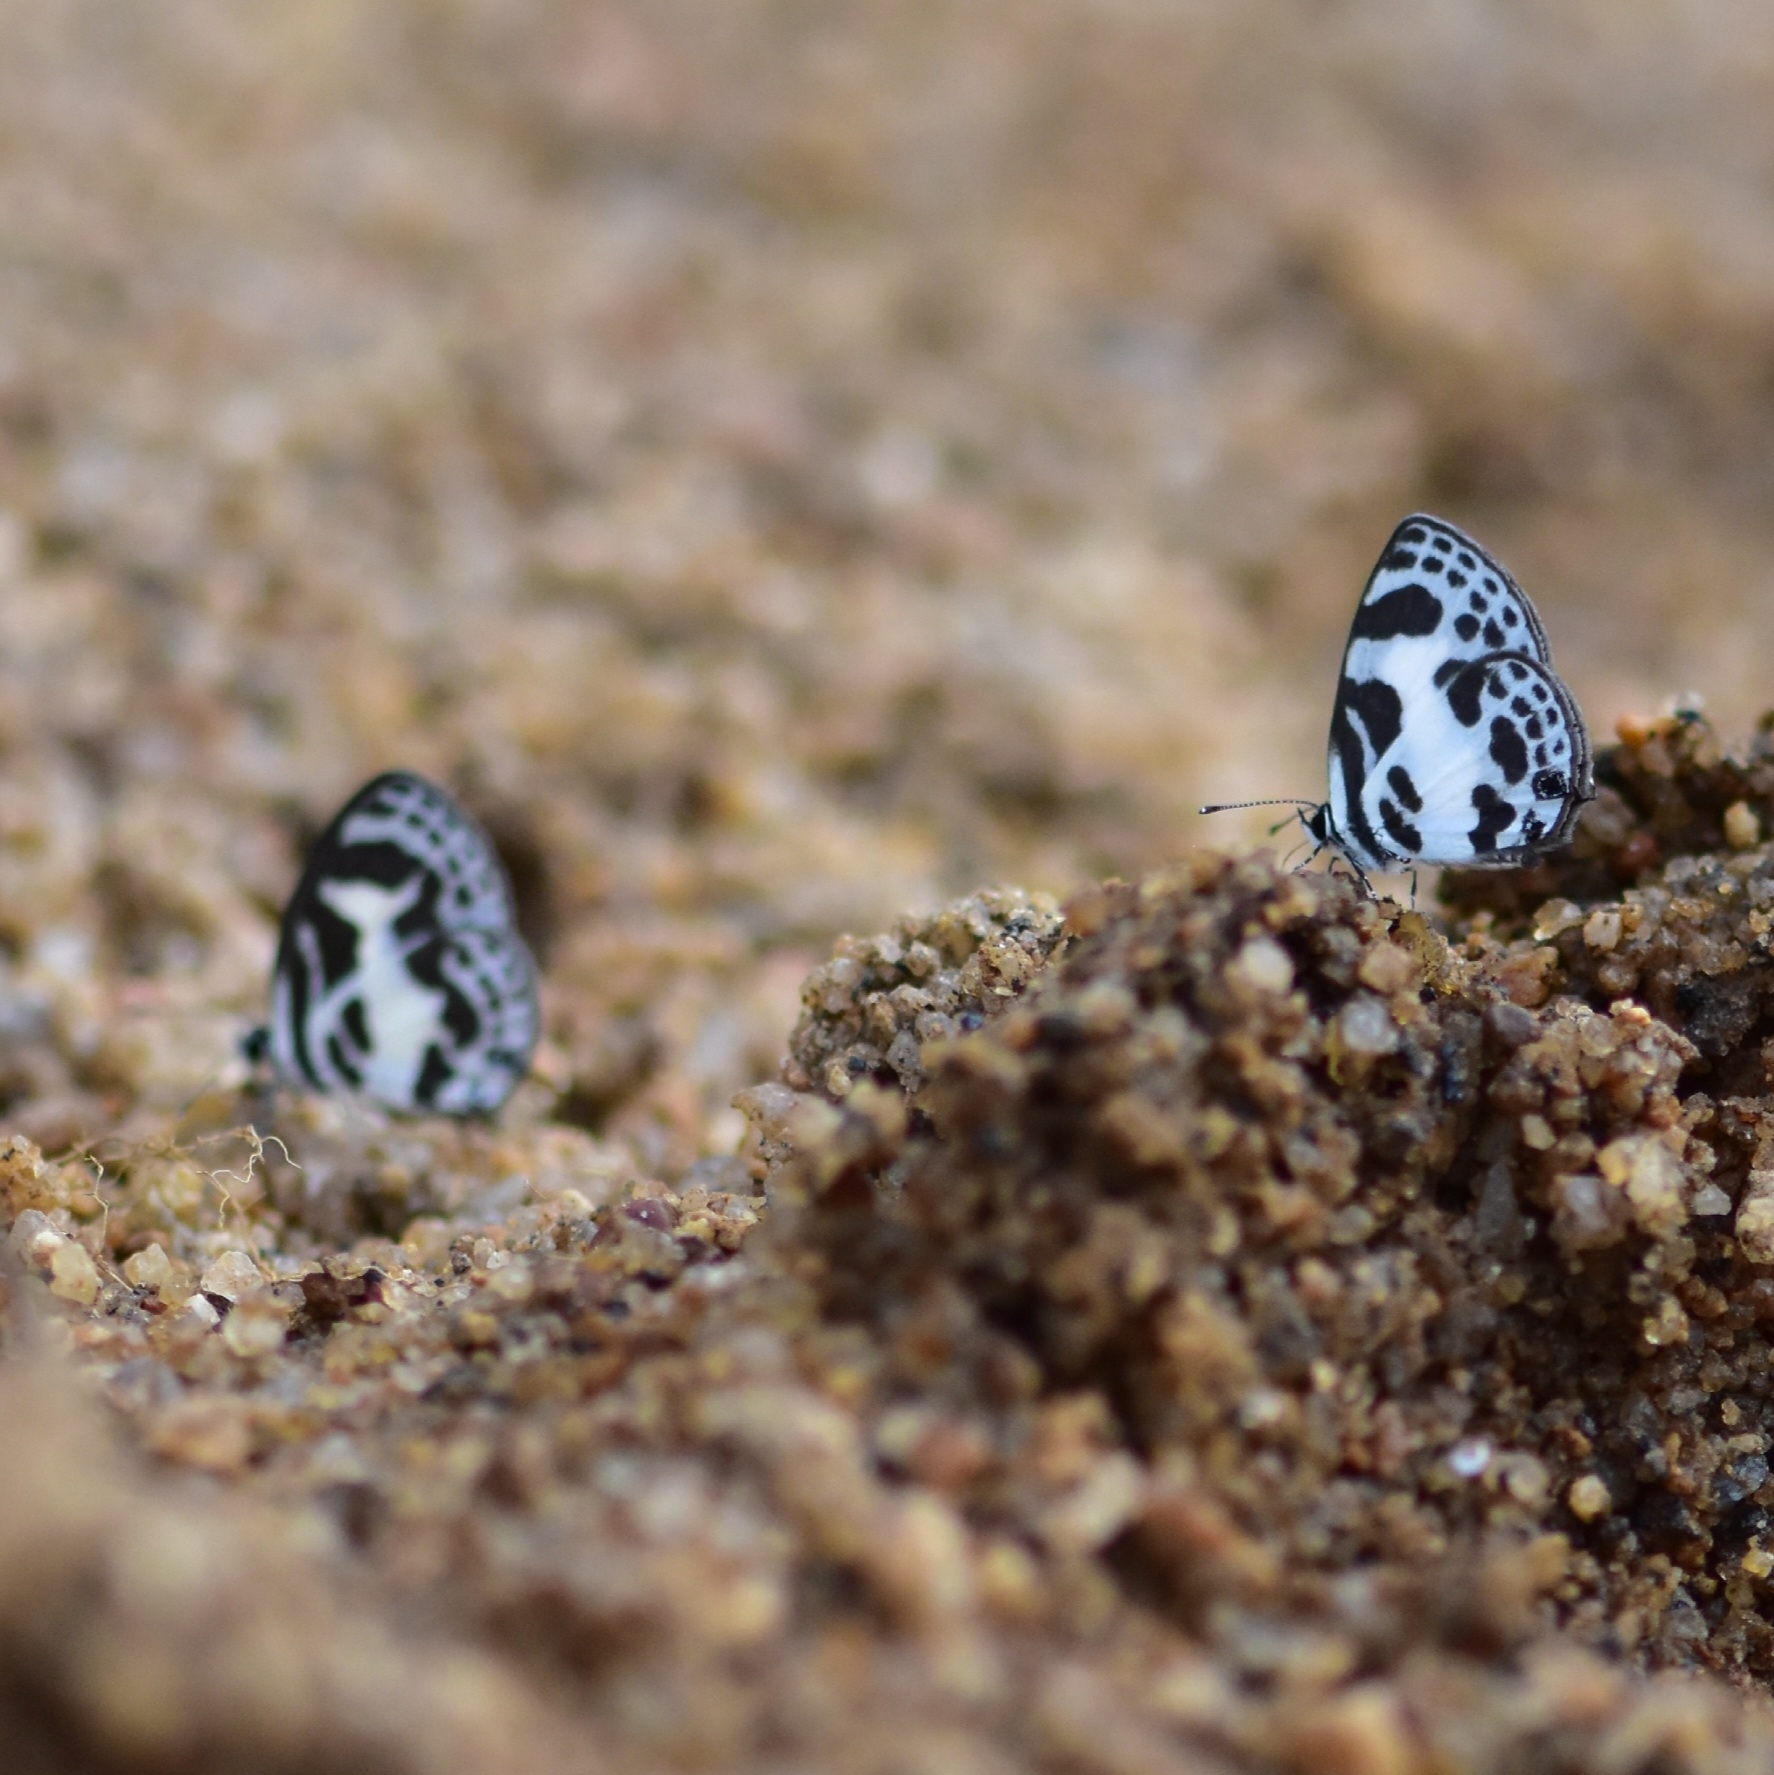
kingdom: Animalia
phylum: Arthropoda
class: Insecta
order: Lepidoptera
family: Lycaenidae
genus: Discolampa
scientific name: Discolampa ethion
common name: Banded blue pierrot
